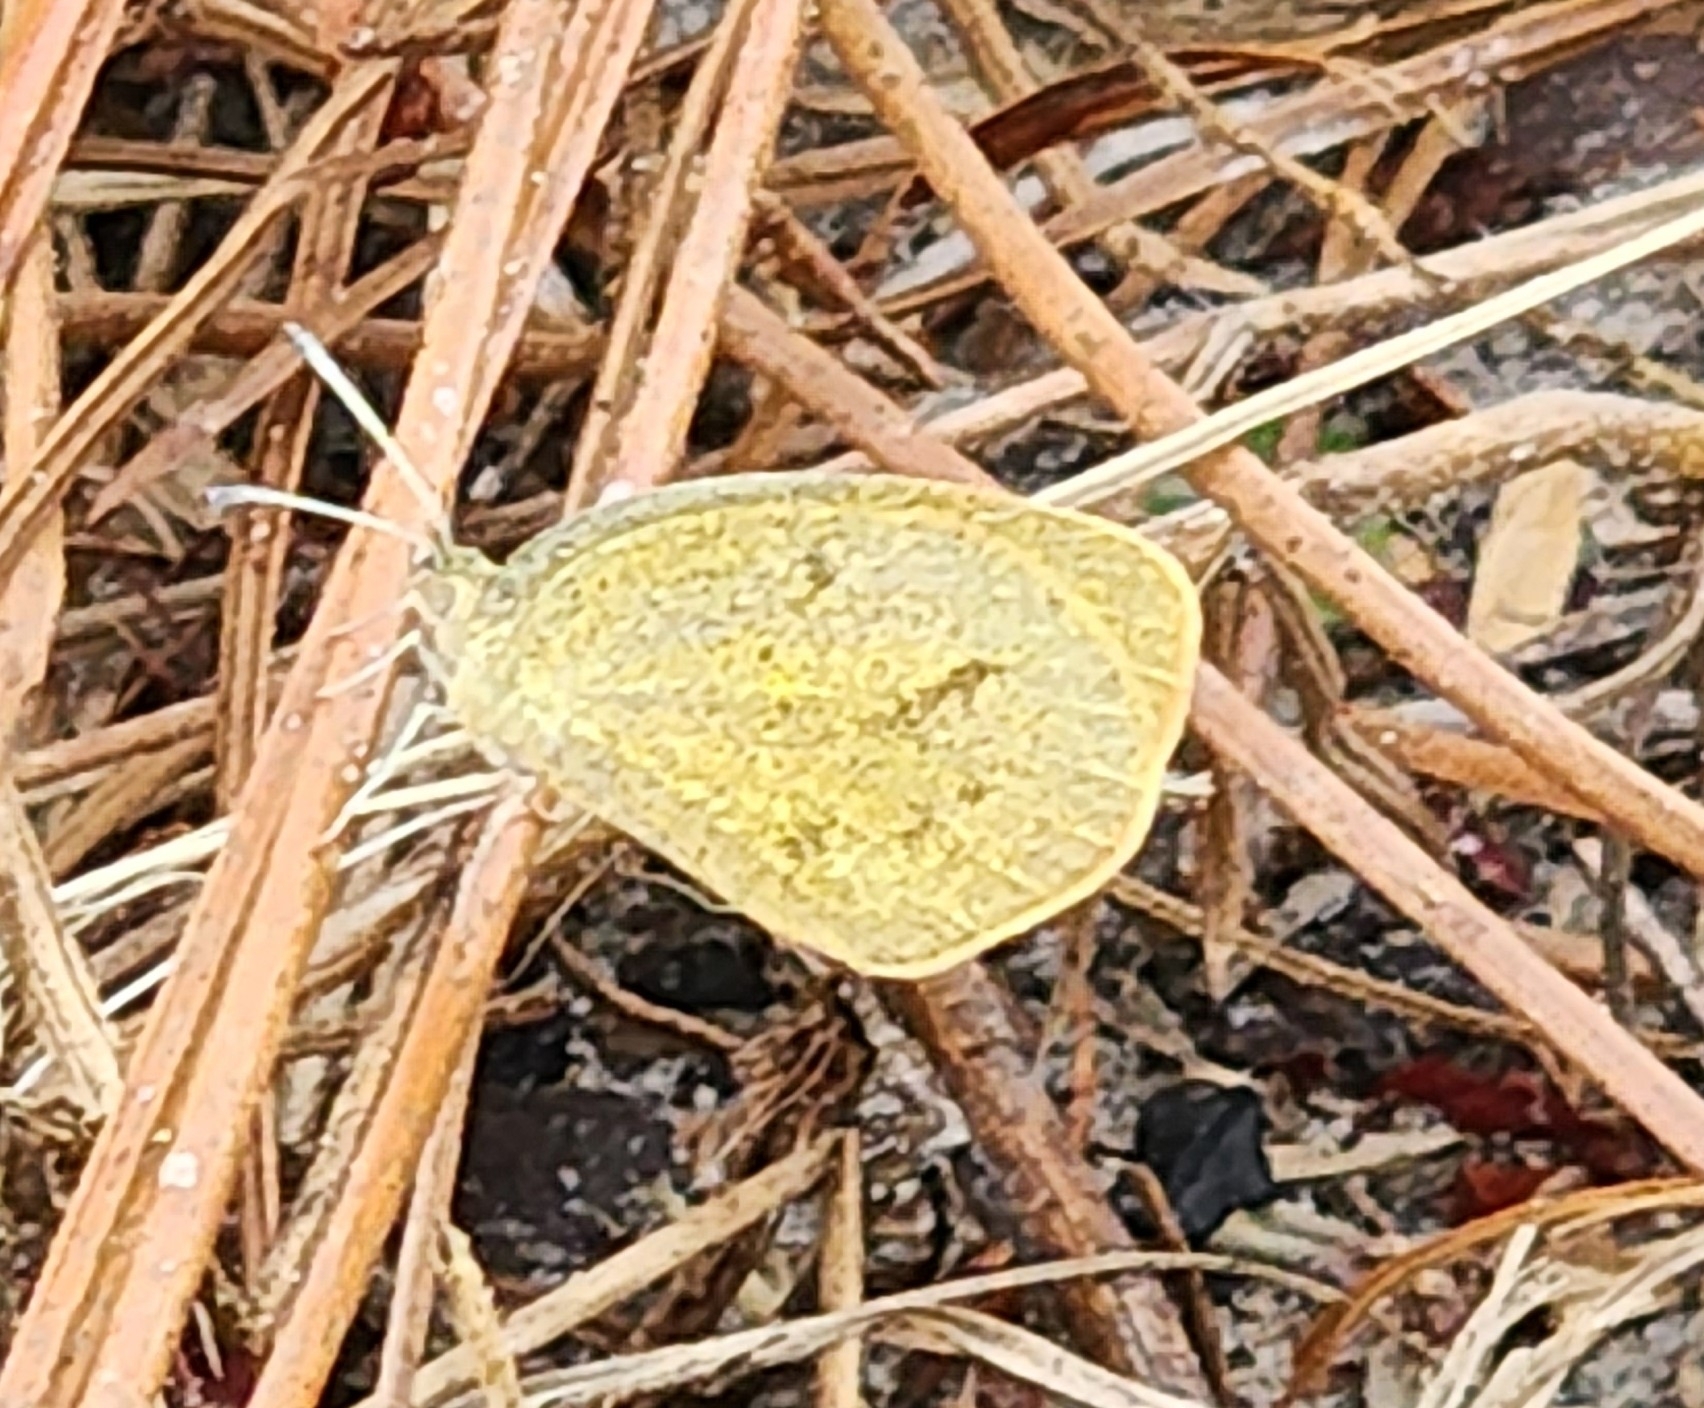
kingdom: Animalia
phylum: Arthropoda
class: Insecta
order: Lepidoptera
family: Pieridae
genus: Eurema
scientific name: Eurema daira
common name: Barred sulphur
